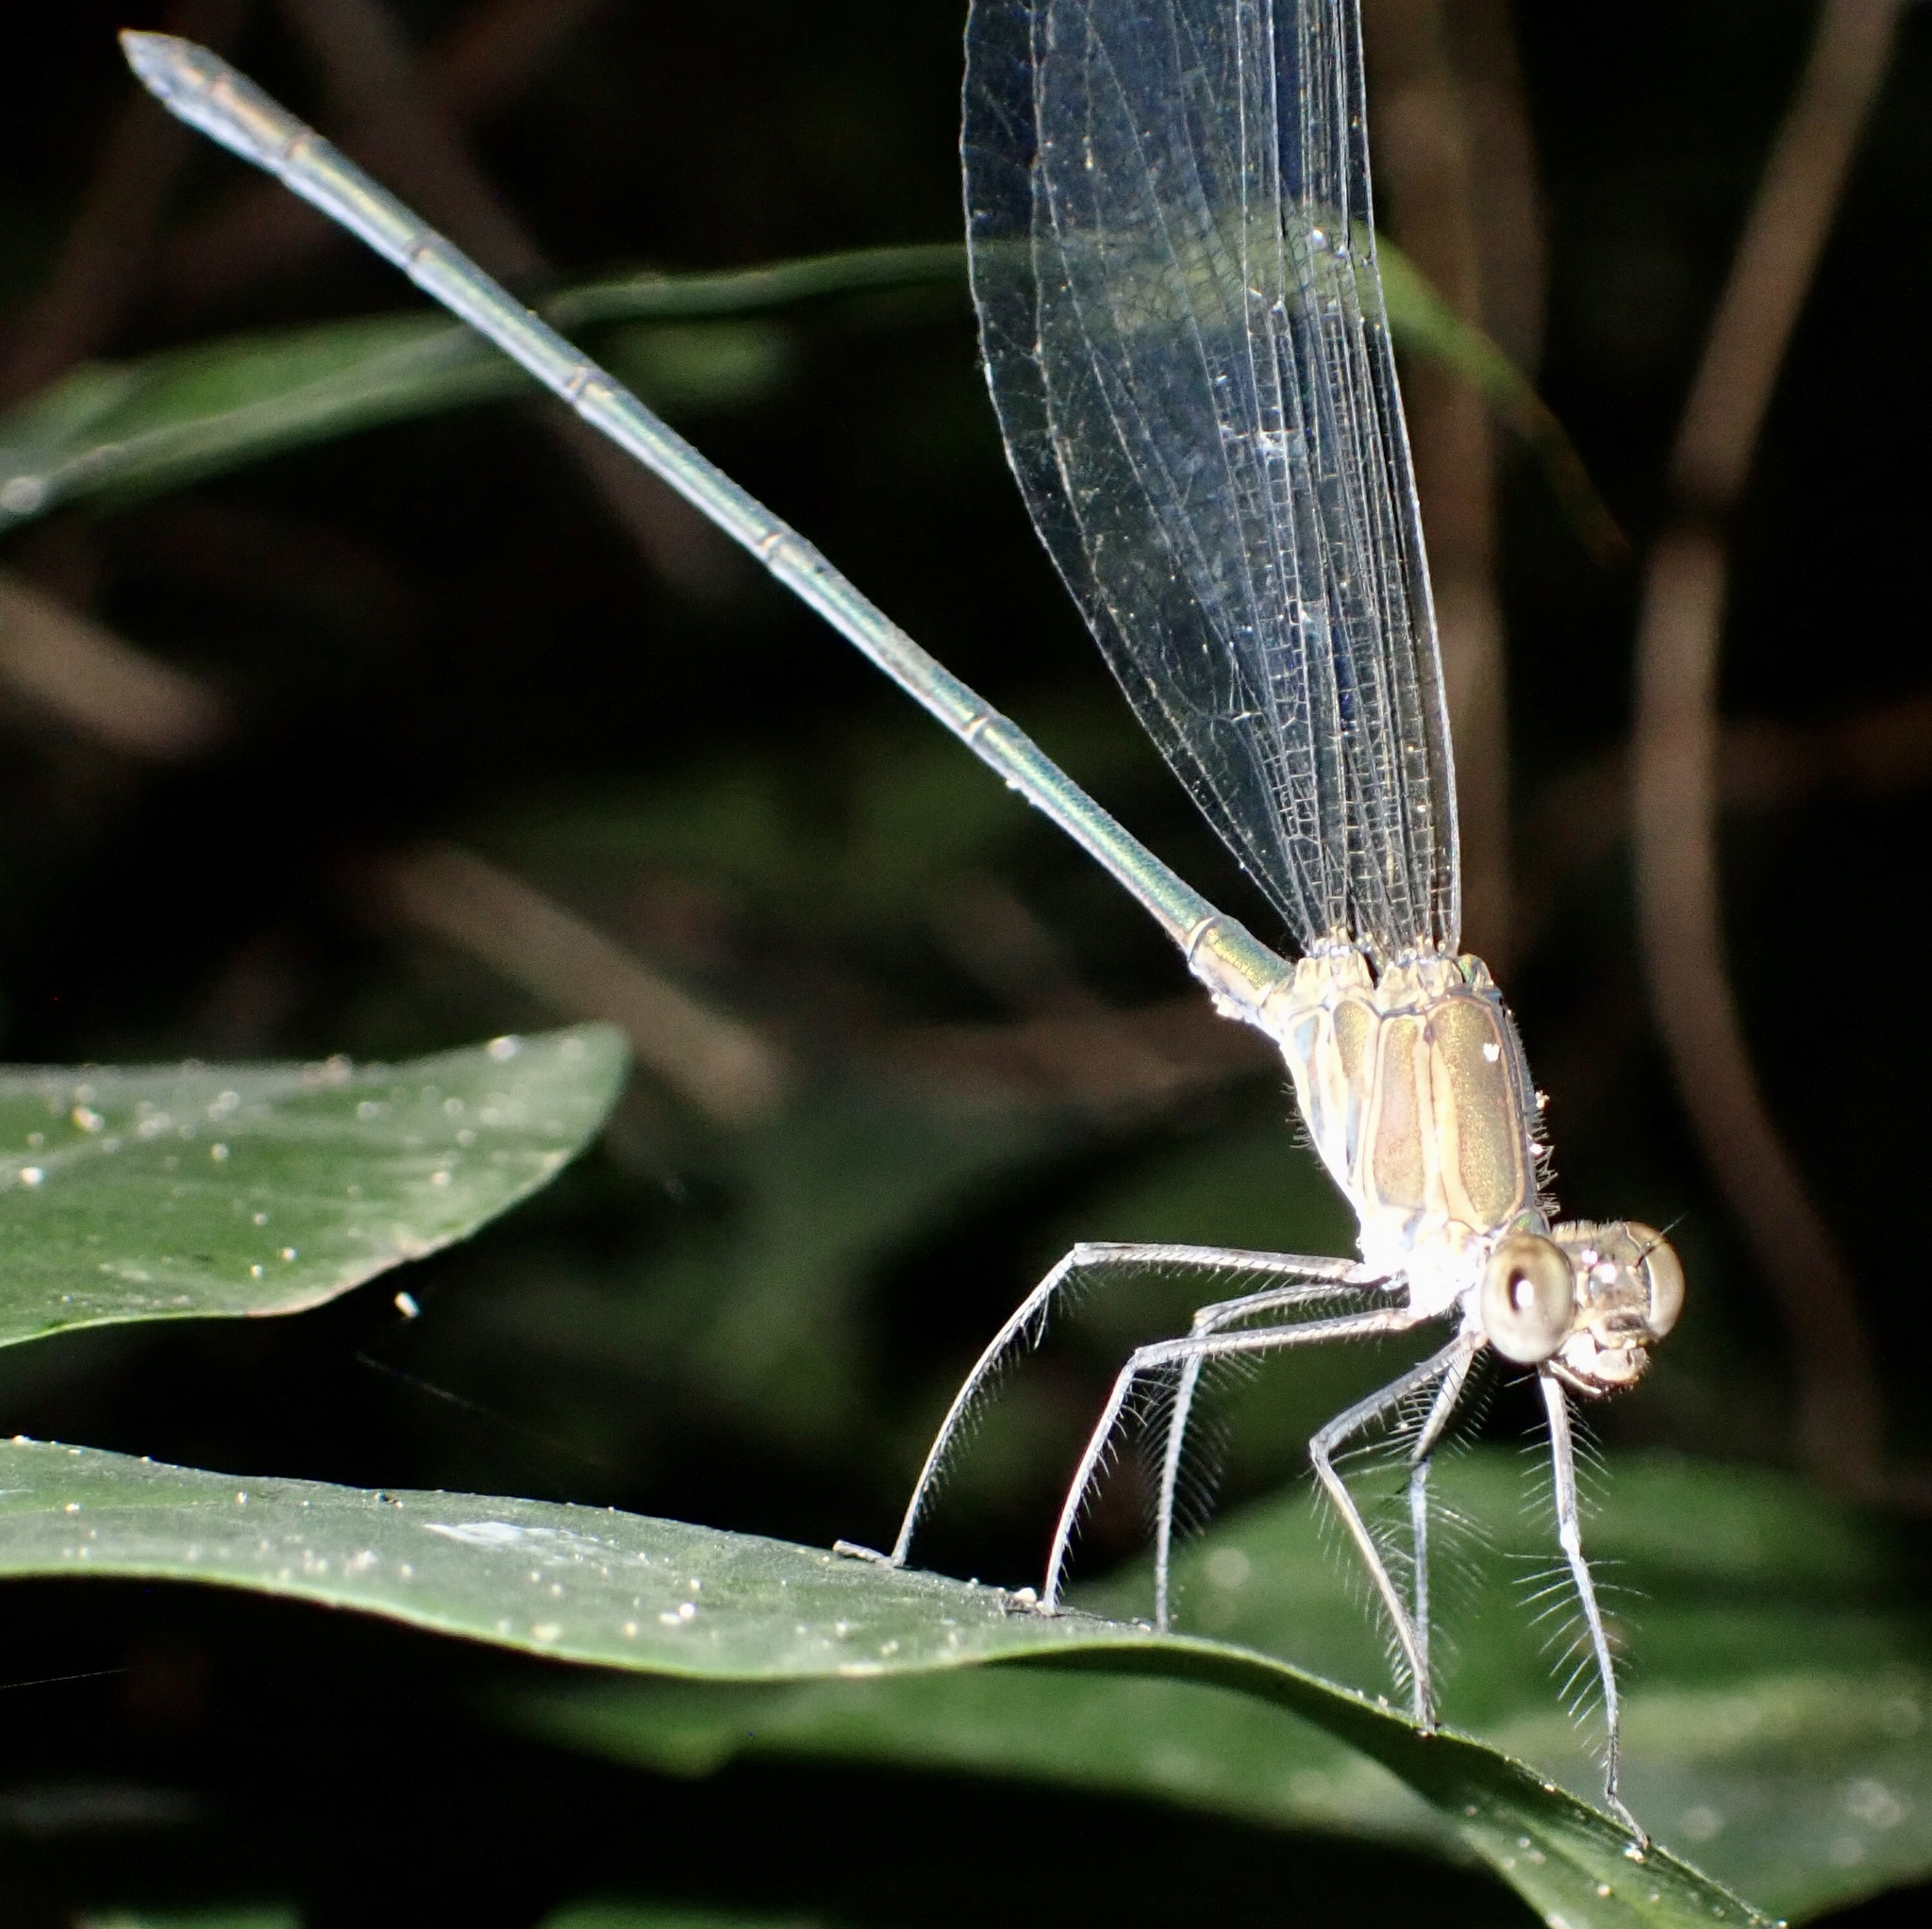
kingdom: Animalia
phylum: Arthropoda
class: Insecta
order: Odonata
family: Calopterygidae
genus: Phaon
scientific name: Phaon iridipennis
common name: Glistening demoiselle
